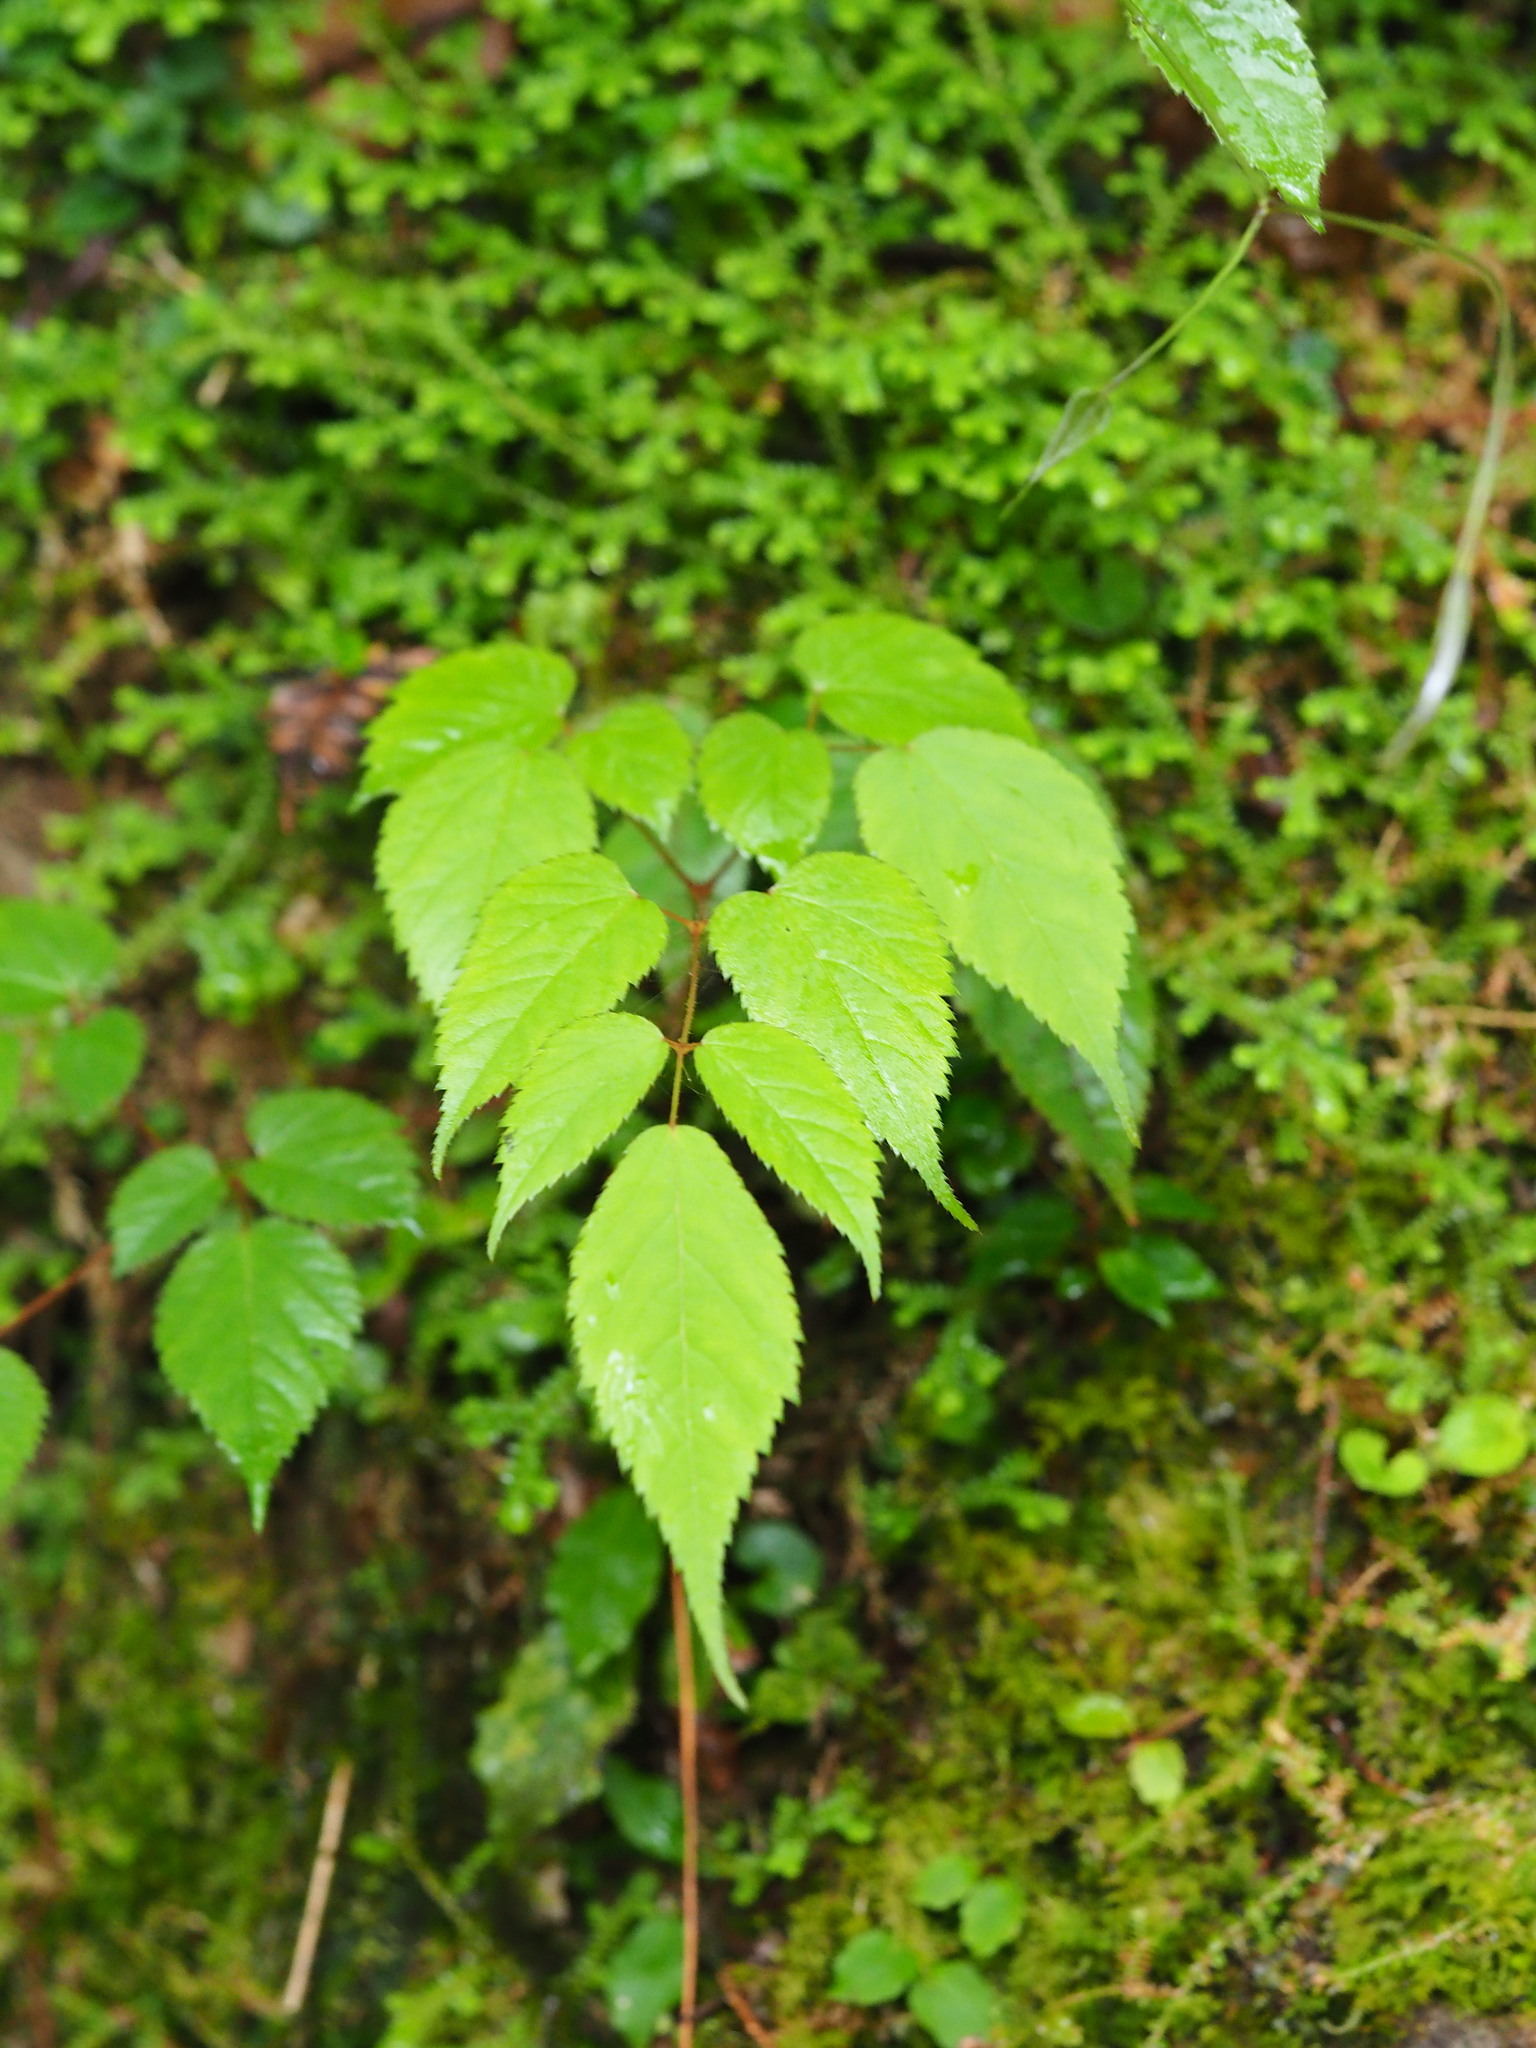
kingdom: Plantae
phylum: Tracheophyta
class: Magnoliopsida
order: Saxifragales
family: Saxifragaceae
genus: Astilbe
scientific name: Astilbe longicarpa
